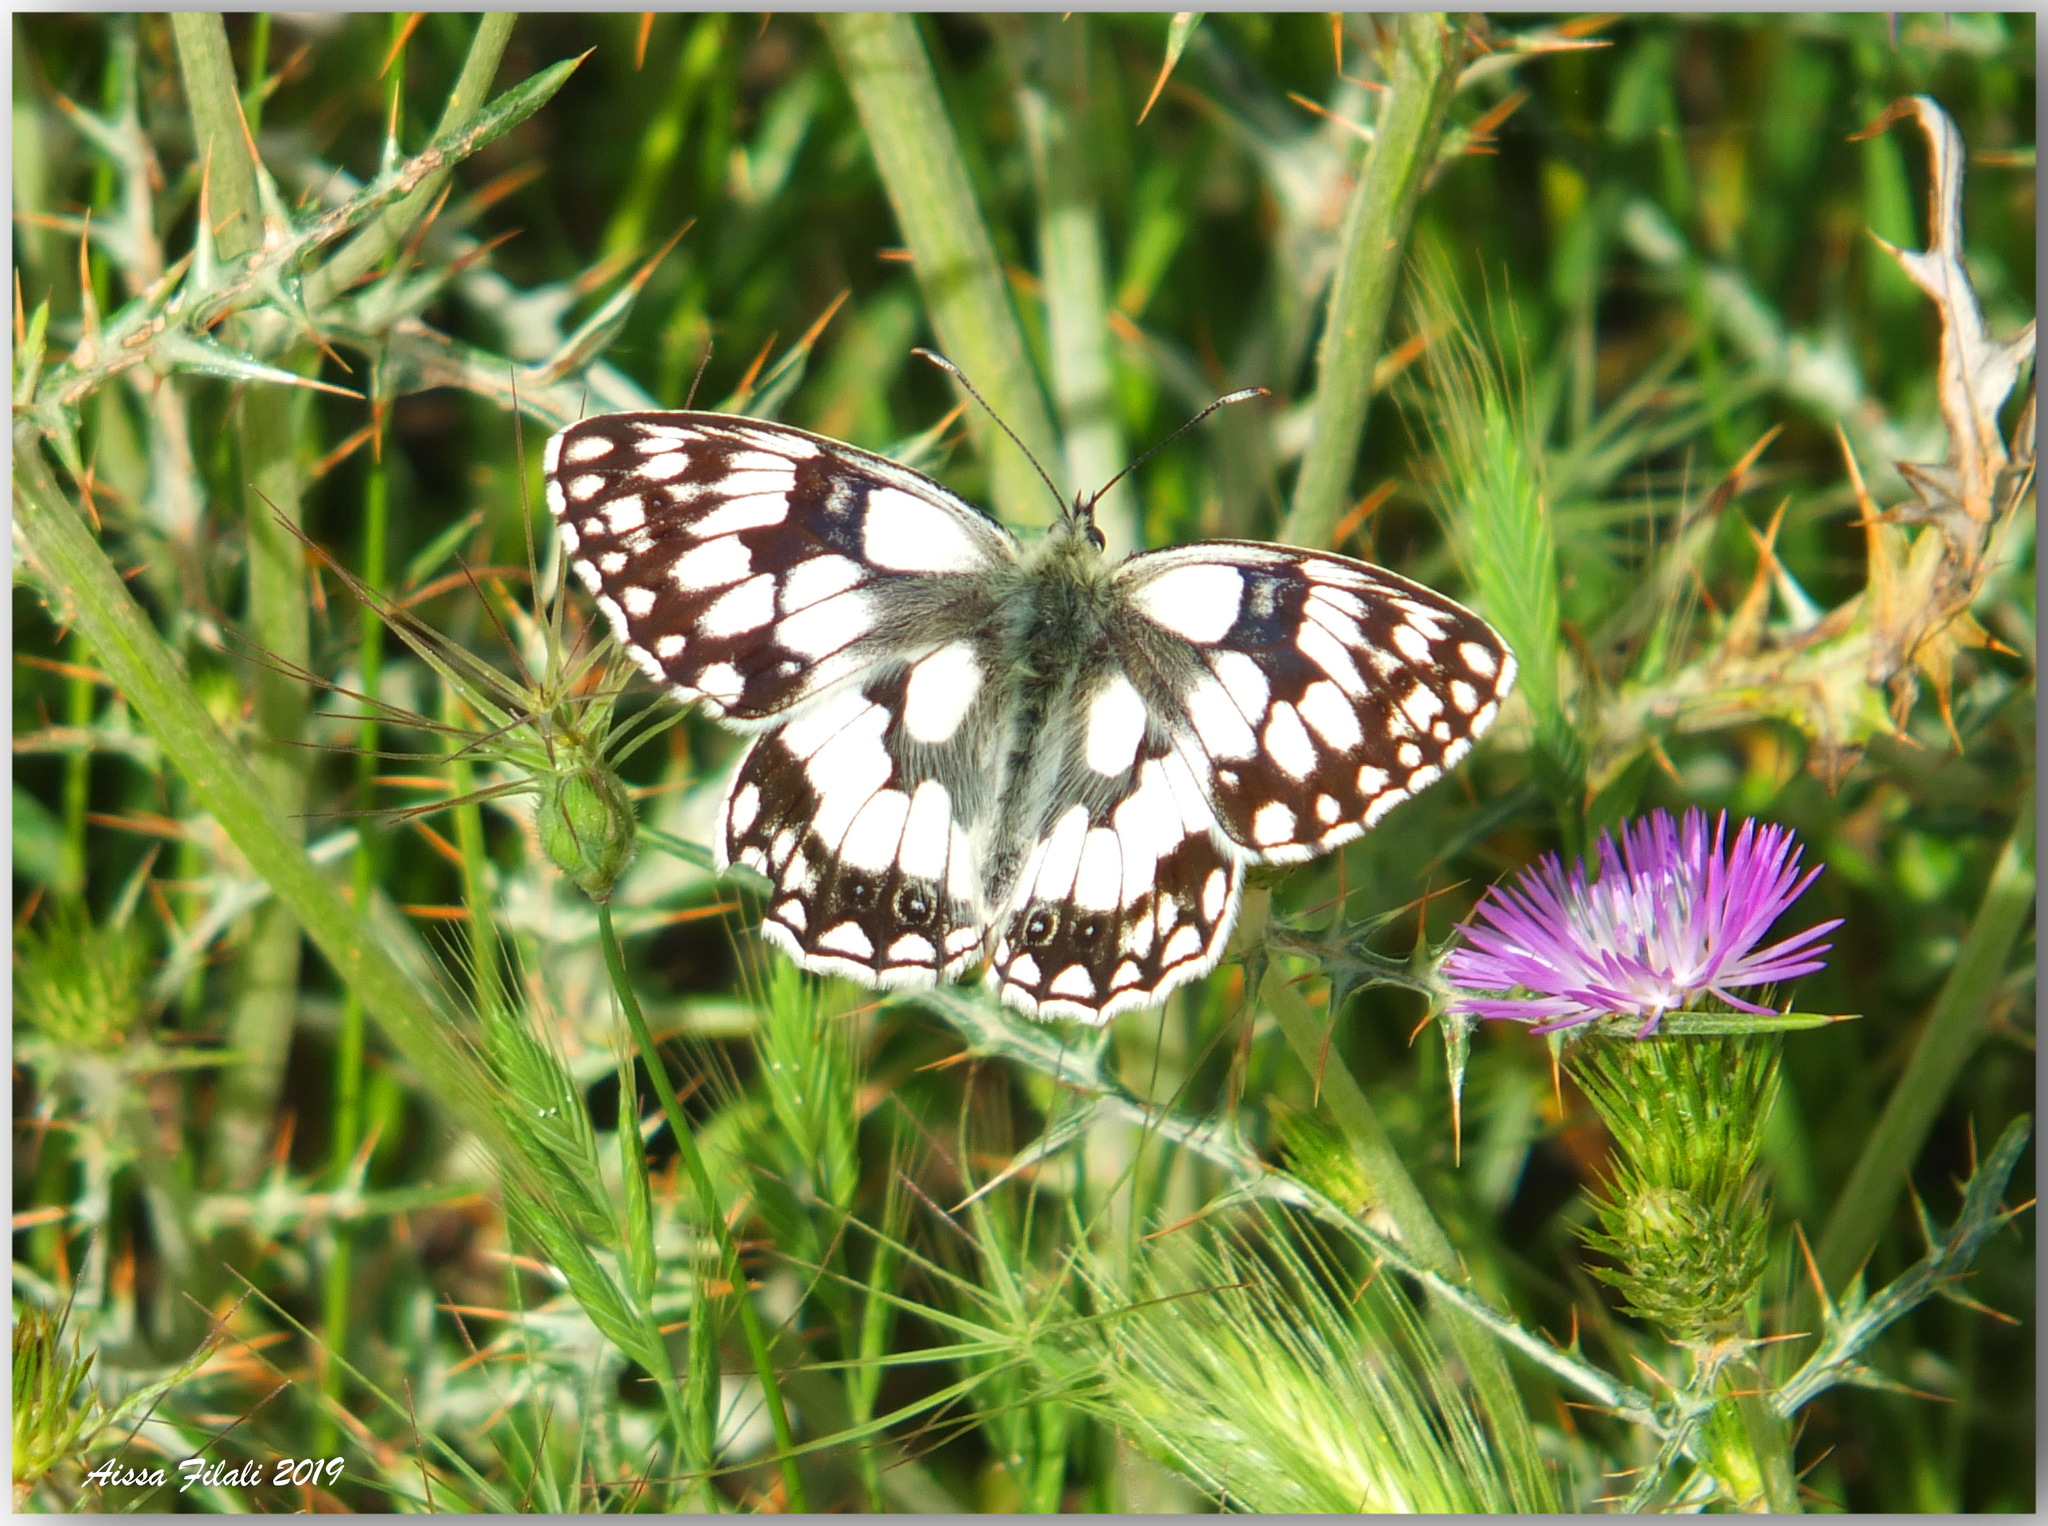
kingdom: Animalia
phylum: Arthropoda
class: Insecta
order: Lepidoptera
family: Nymphalidae
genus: Melanargia
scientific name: Melanargia lucasi
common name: Moroccan marbled white
